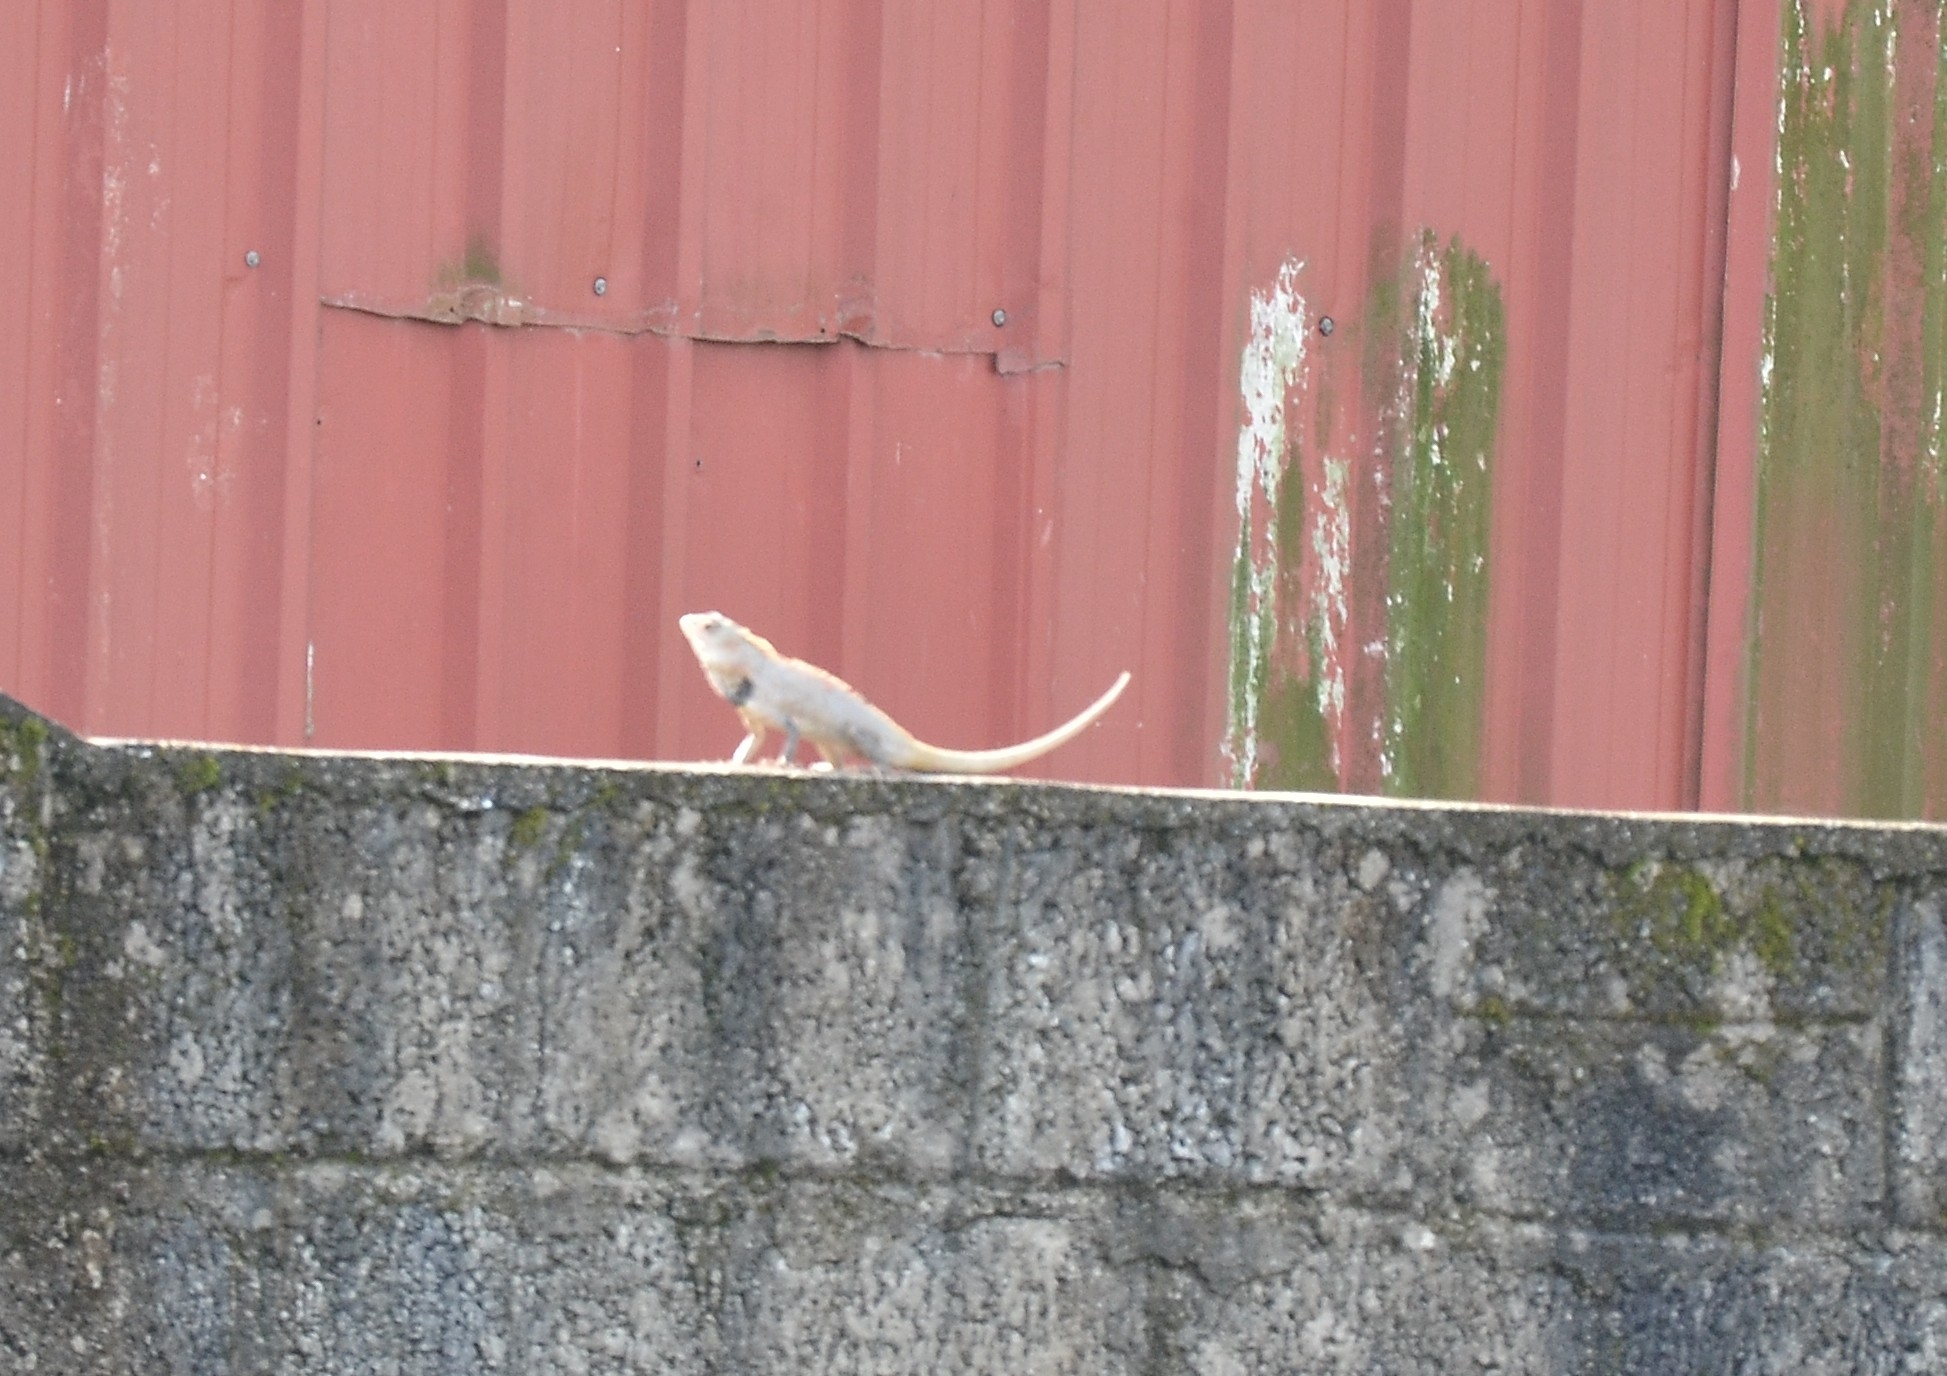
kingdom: Animalia
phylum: Chordata
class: Squamata
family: Agamidae
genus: Calotes
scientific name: Calotes versicolor
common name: Oriental garden lizard
